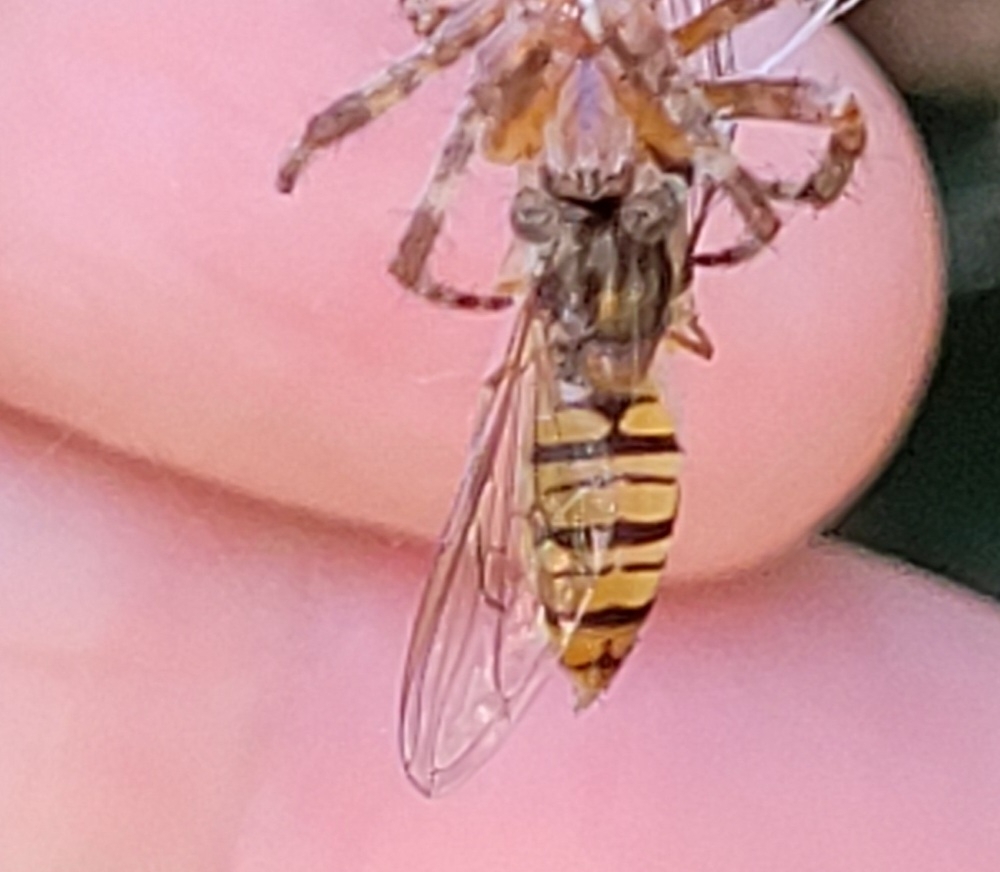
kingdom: Animalia
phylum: Arthropoda
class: Insecta
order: Diptera
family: Syrphidae
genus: Episyrphus
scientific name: Episyrphus balteatus
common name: Marmalade hoverfly
